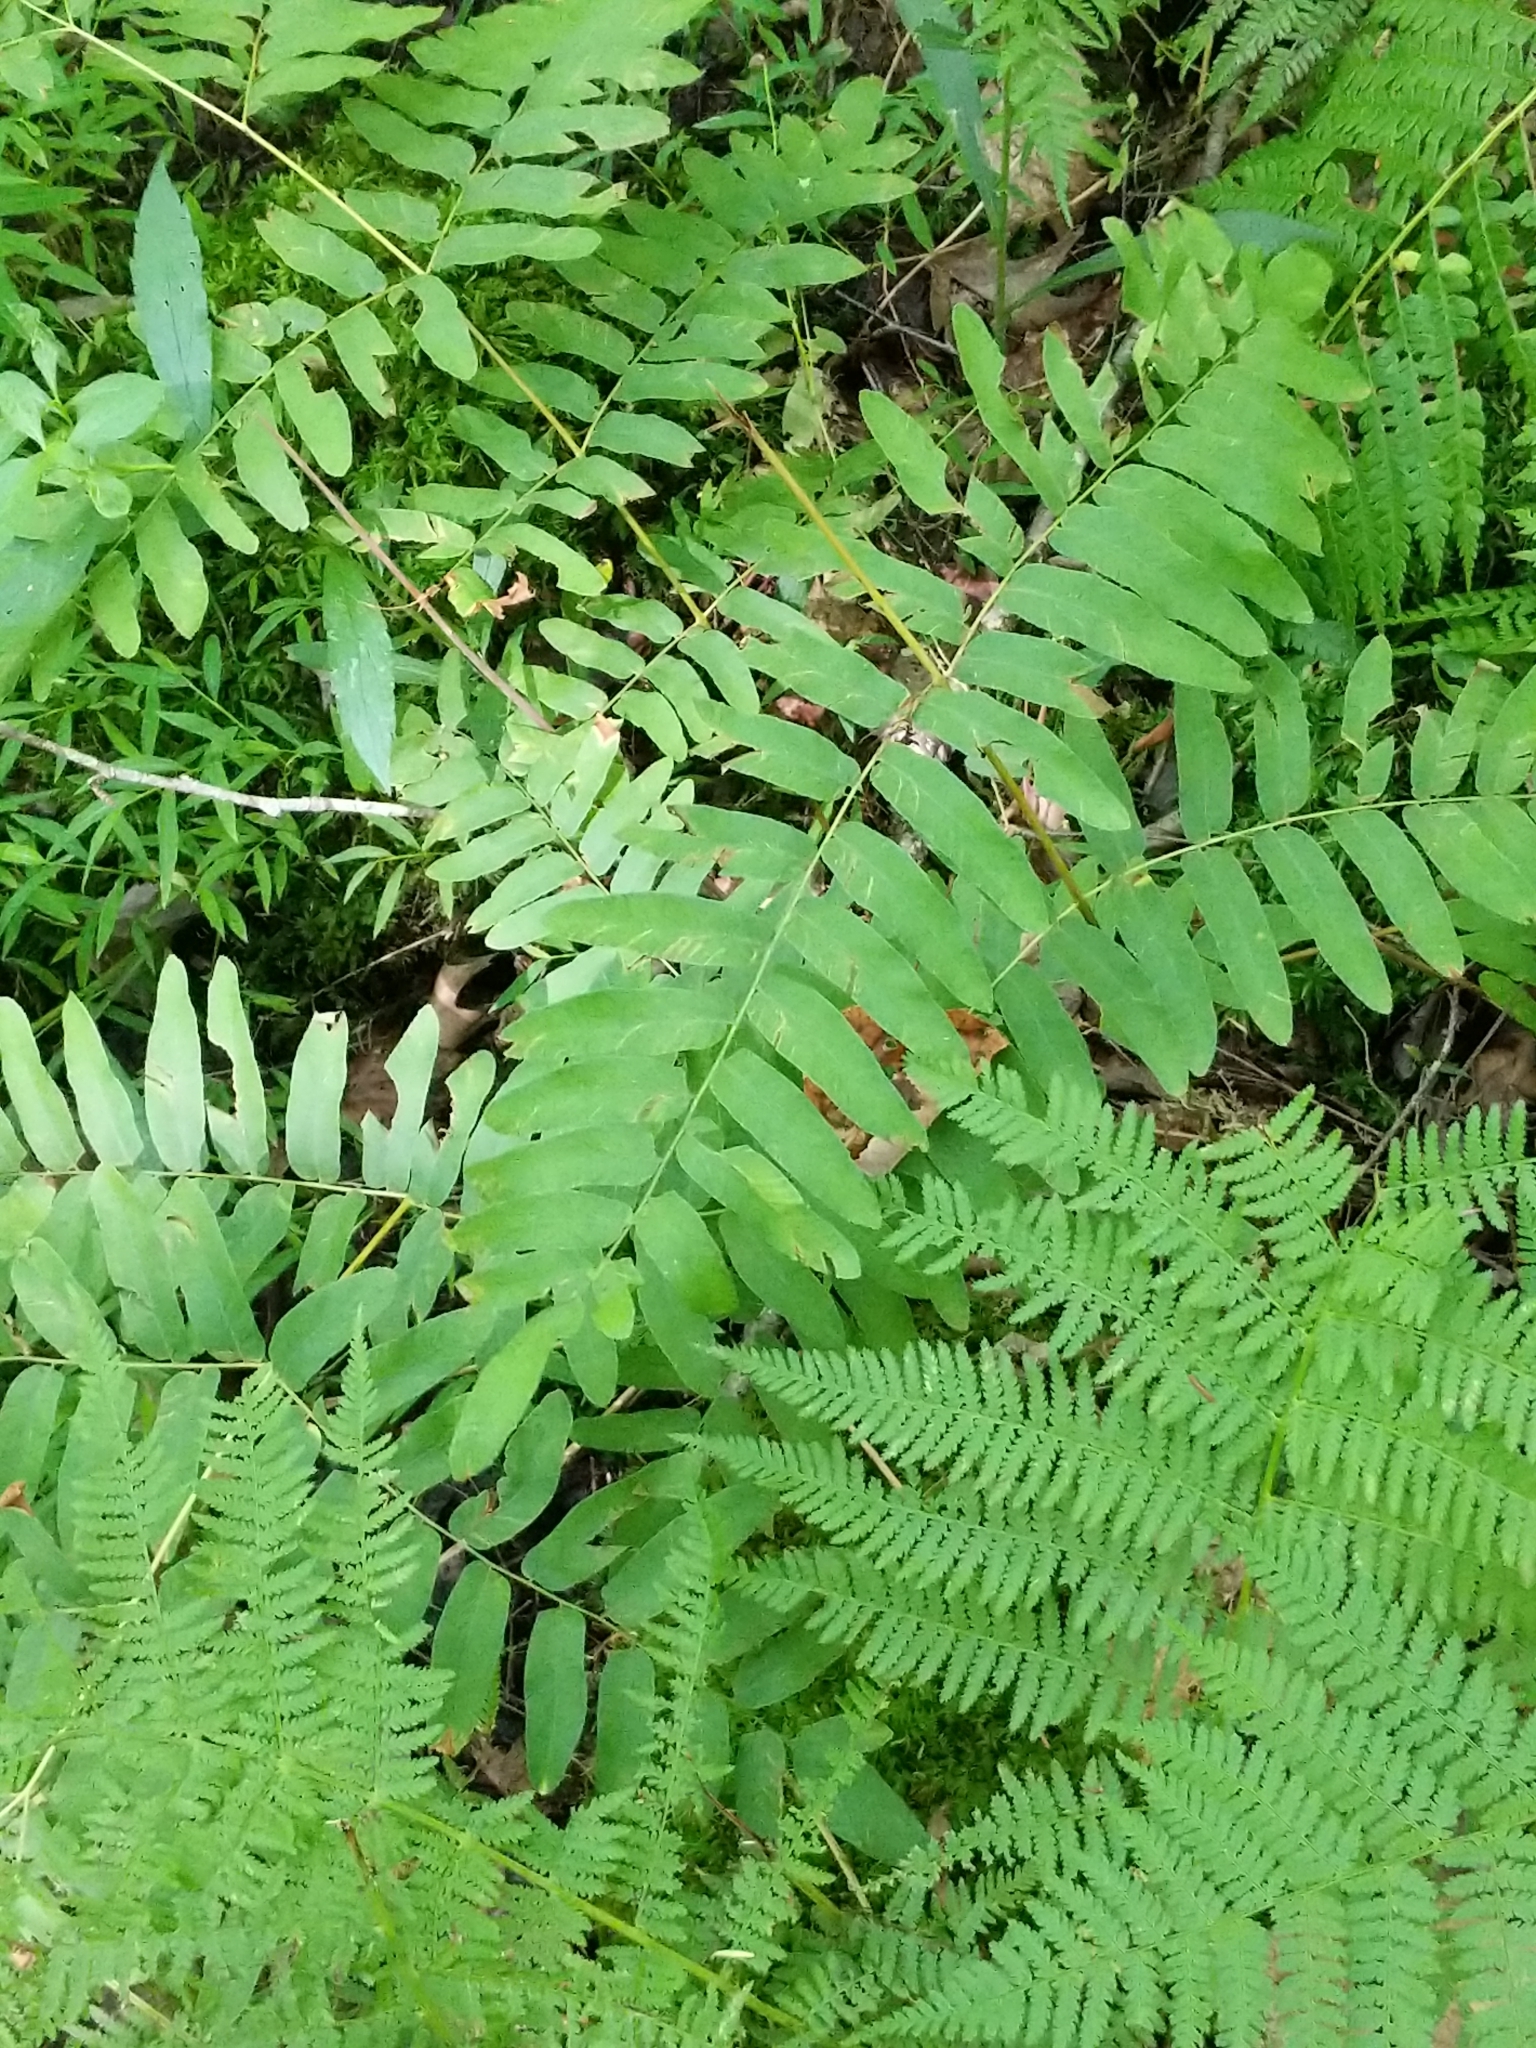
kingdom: Plantae
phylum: Tracheophyta
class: Polypodiopsida
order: Osmundales
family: Osmundaceae
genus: Osmunda
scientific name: Osmunda spectabilis
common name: American royal fern
